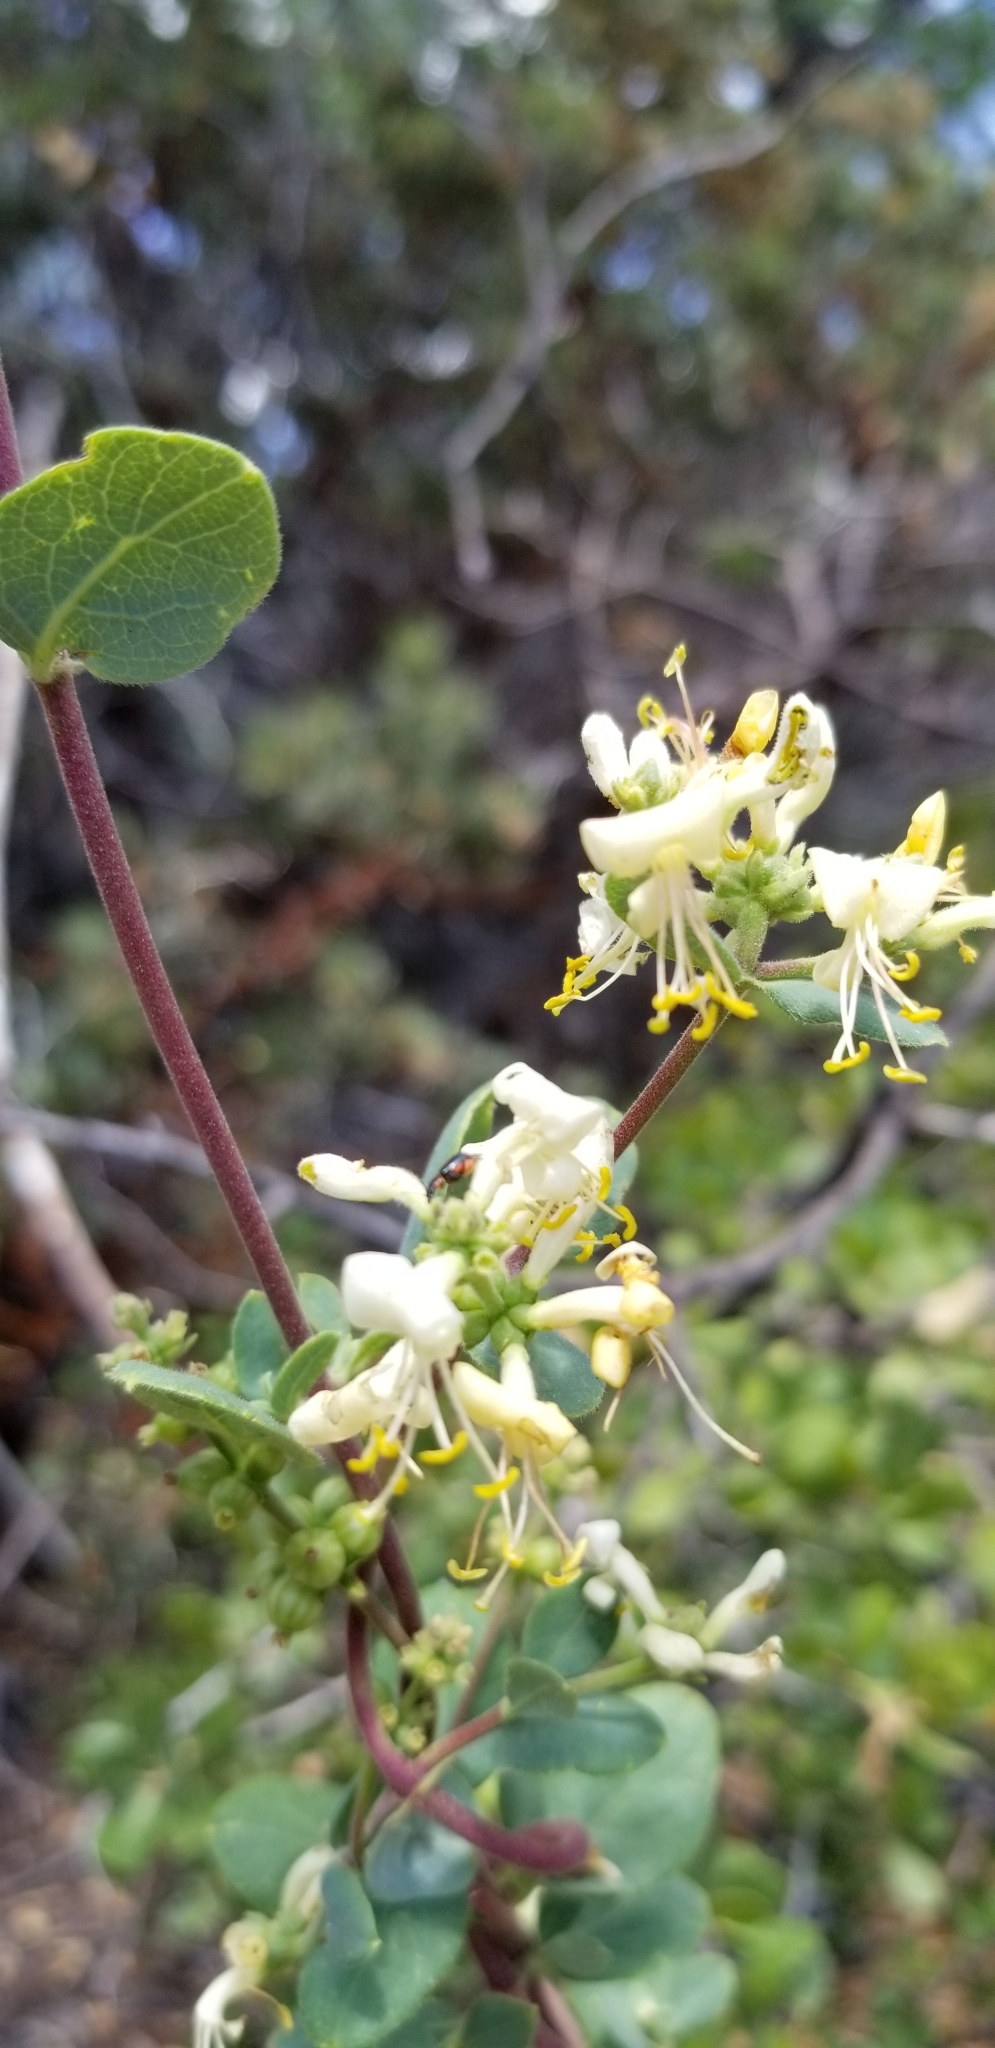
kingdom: Plantae
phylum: Tracheophyta
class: Magnoliopsida
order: Dipsacales
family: Caprifoliaceae
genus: Lonicera
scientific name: Lonicera subspicata
